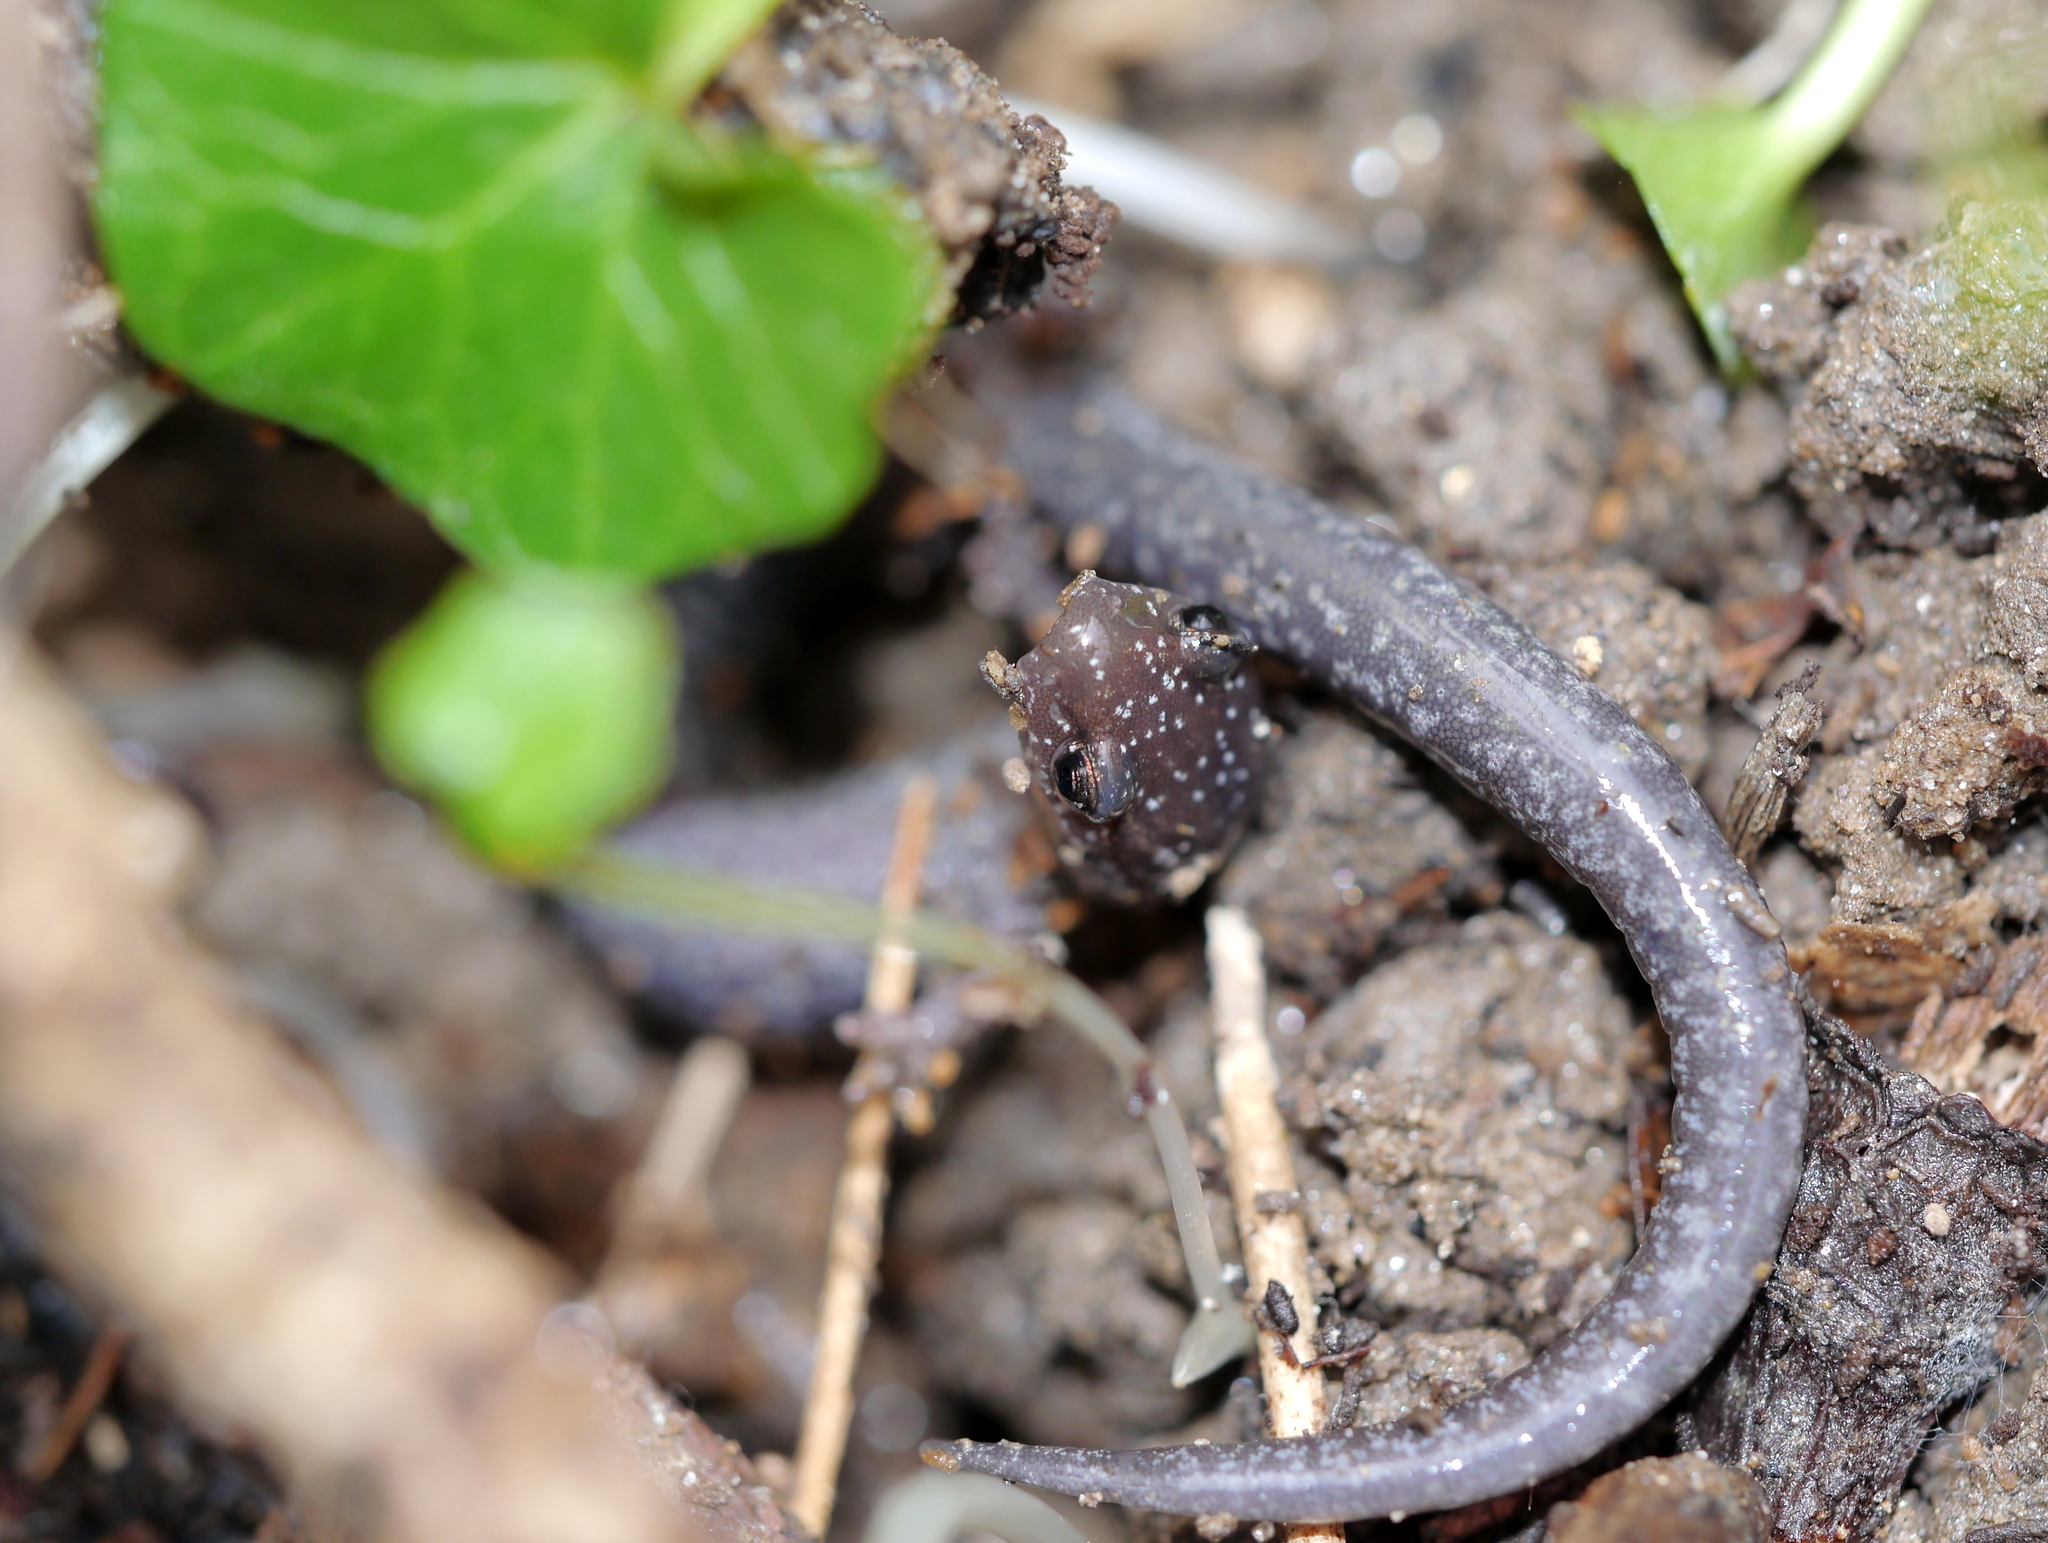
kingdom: Animalia
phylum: Chordata
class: Amphibia
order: Caudata
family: Plethodontidae
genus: Plethodon
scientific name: Plethodon cinereus
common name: Redback salamander
